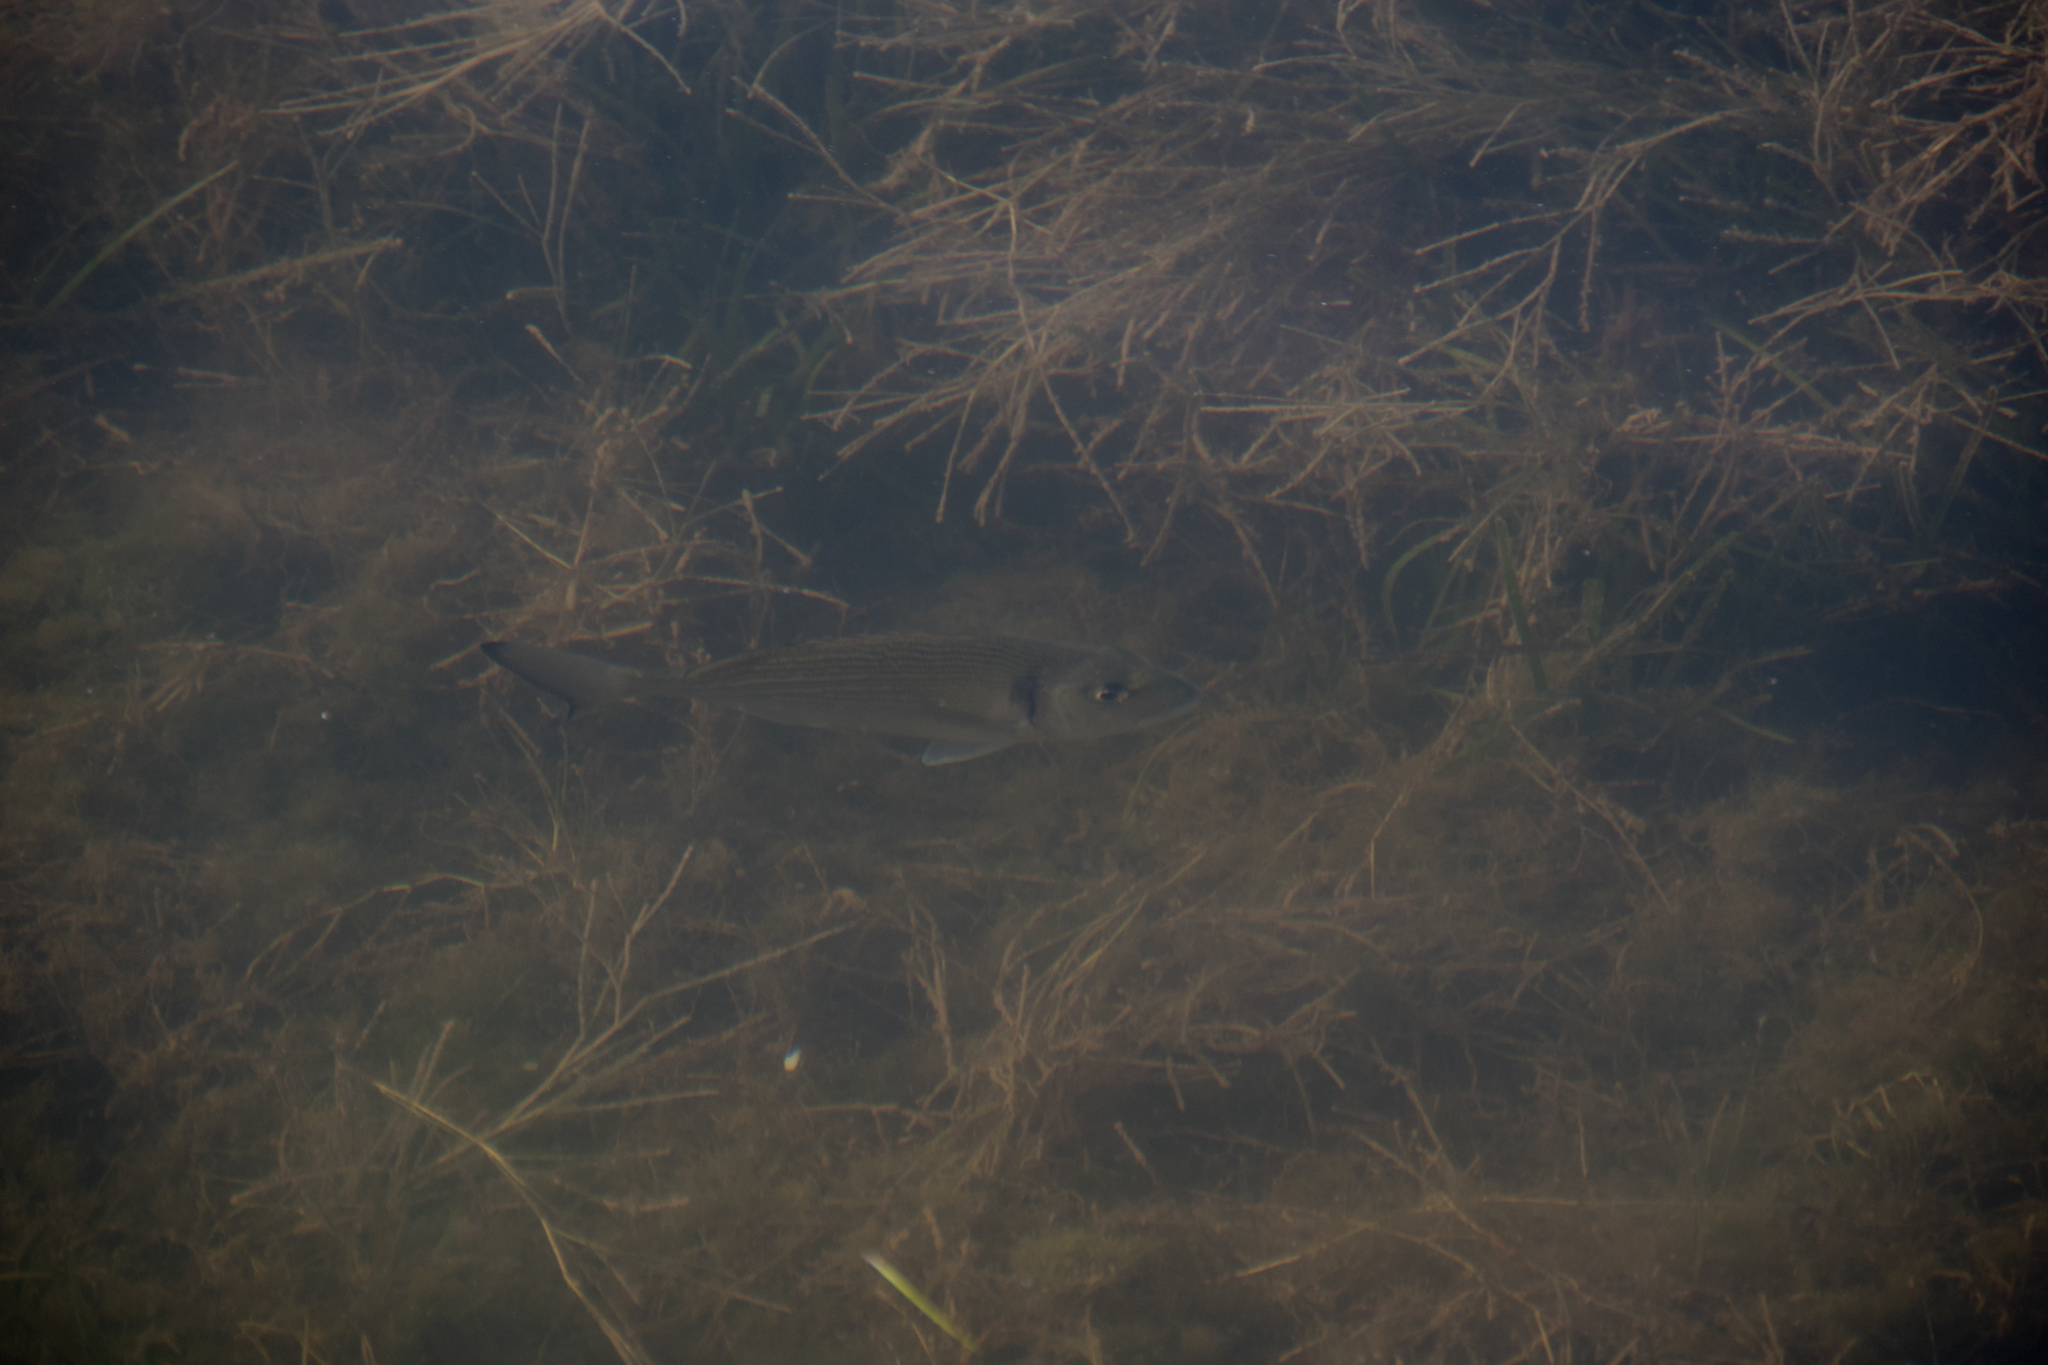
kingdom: Animalia
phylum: Chordata
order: Perciformes
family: Sparidae
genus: Sparus
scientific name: Sparus aurata
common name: Gilthead
